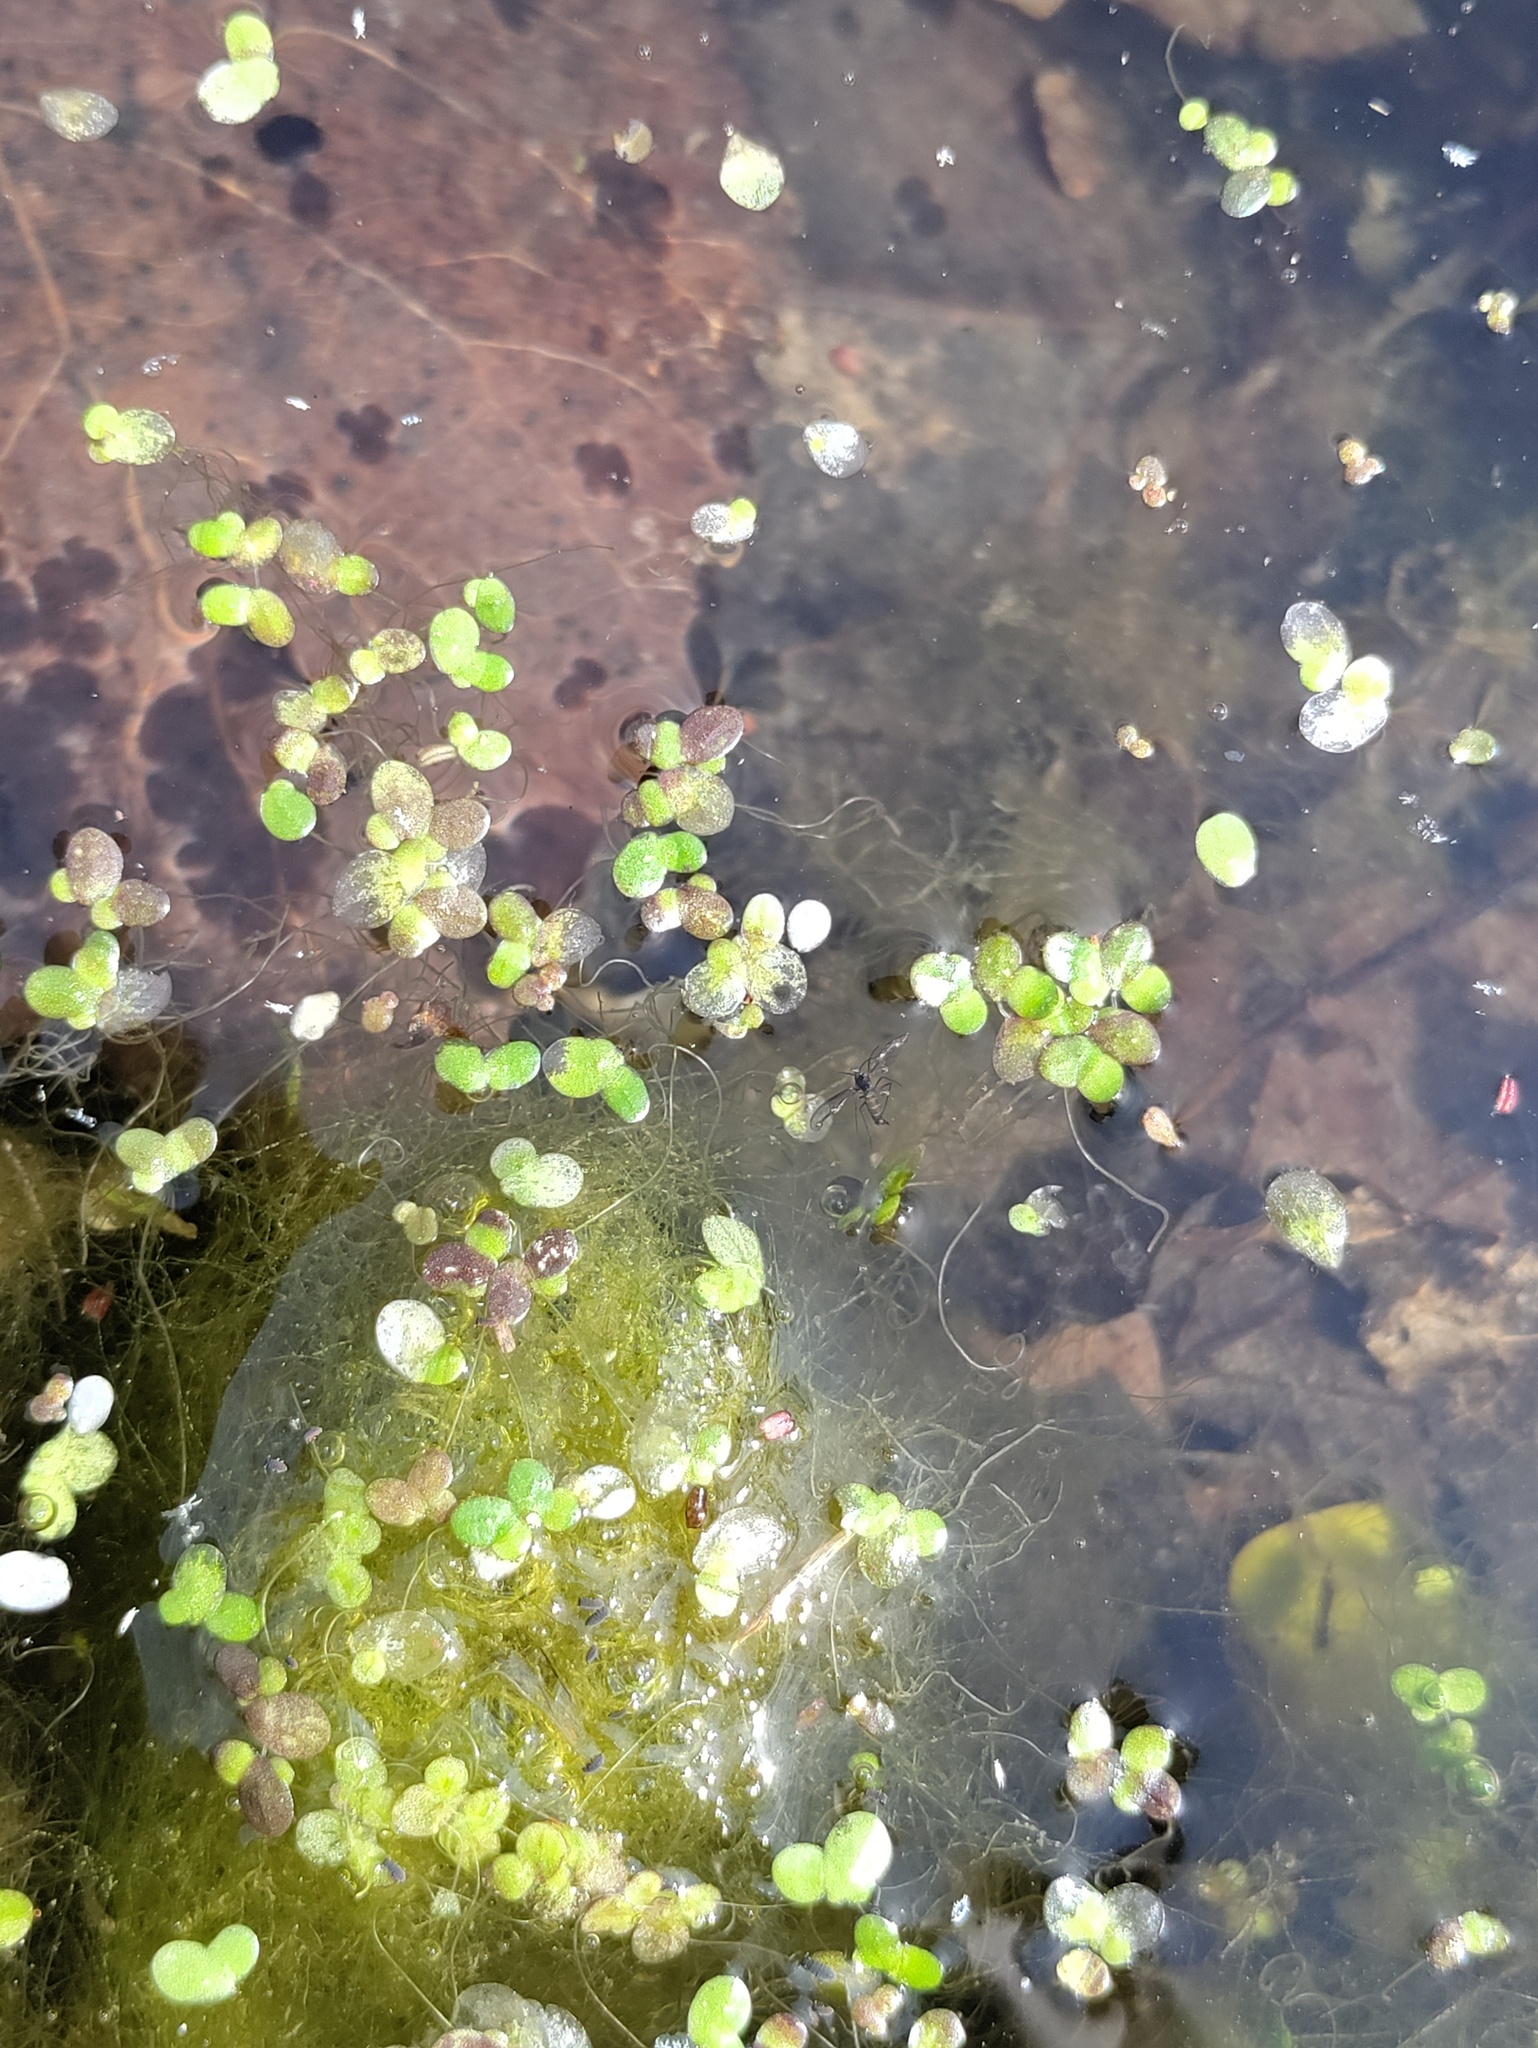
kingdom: Plantae
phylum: Tracheophyta
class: Liliopsida
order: Alismatales
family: Araceae
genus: Lemna
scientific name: Lemna minor
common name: Common duckweed
